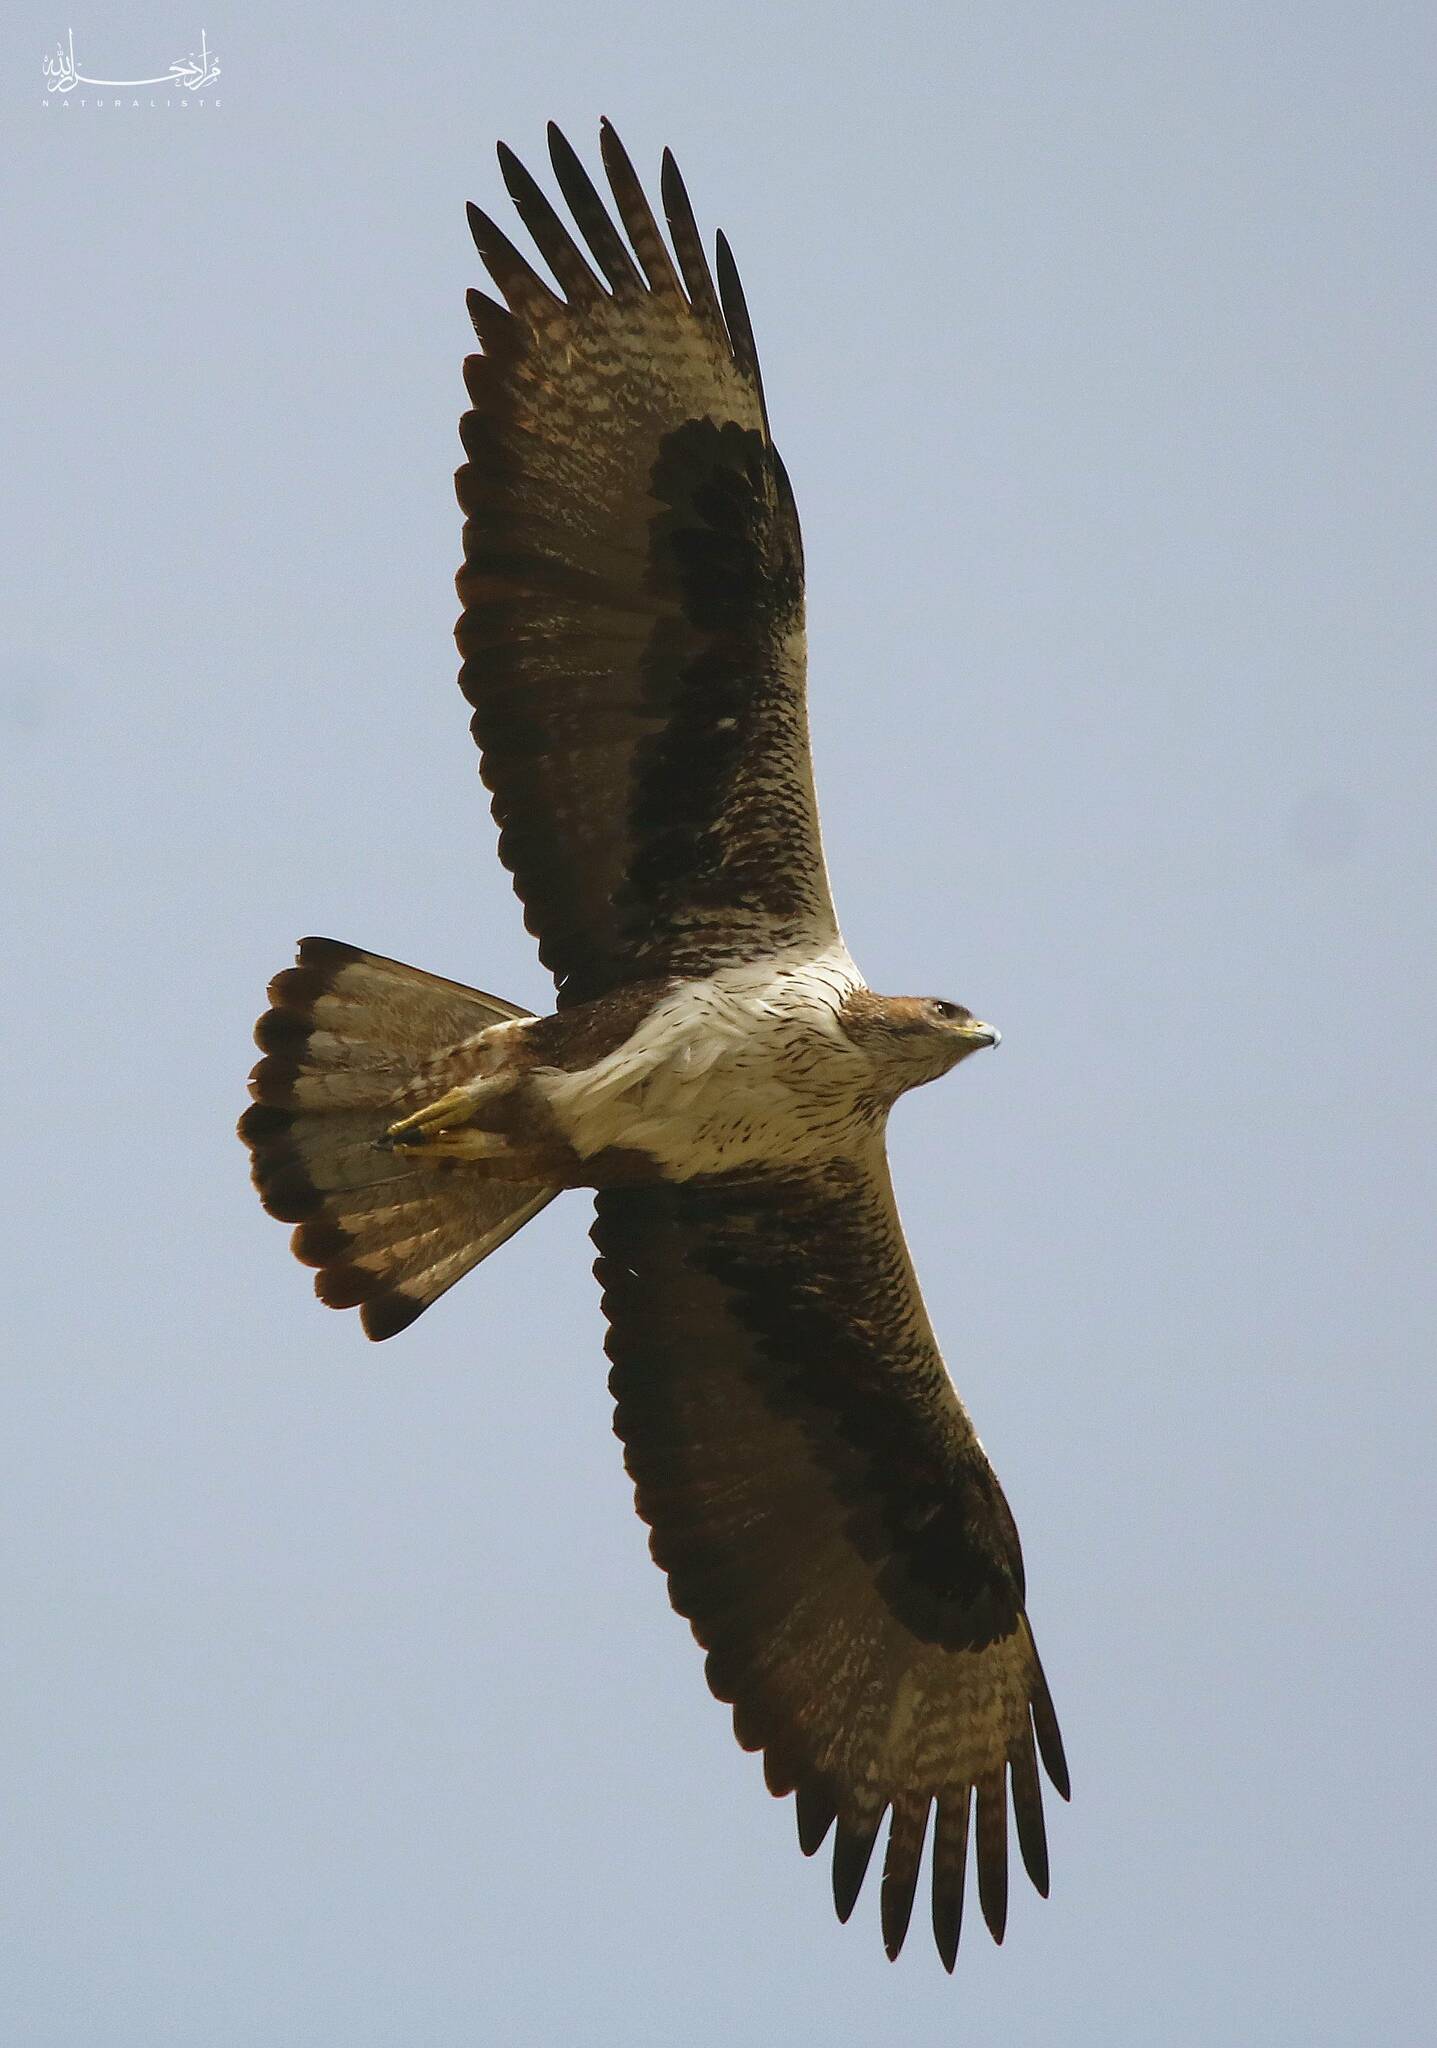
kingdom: Animalia
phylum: Chordata
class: Aves
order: Accipitriformes
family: Accipitridae
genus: Aquila
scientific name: Aquila fasciata
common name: Bonelli's eagle
